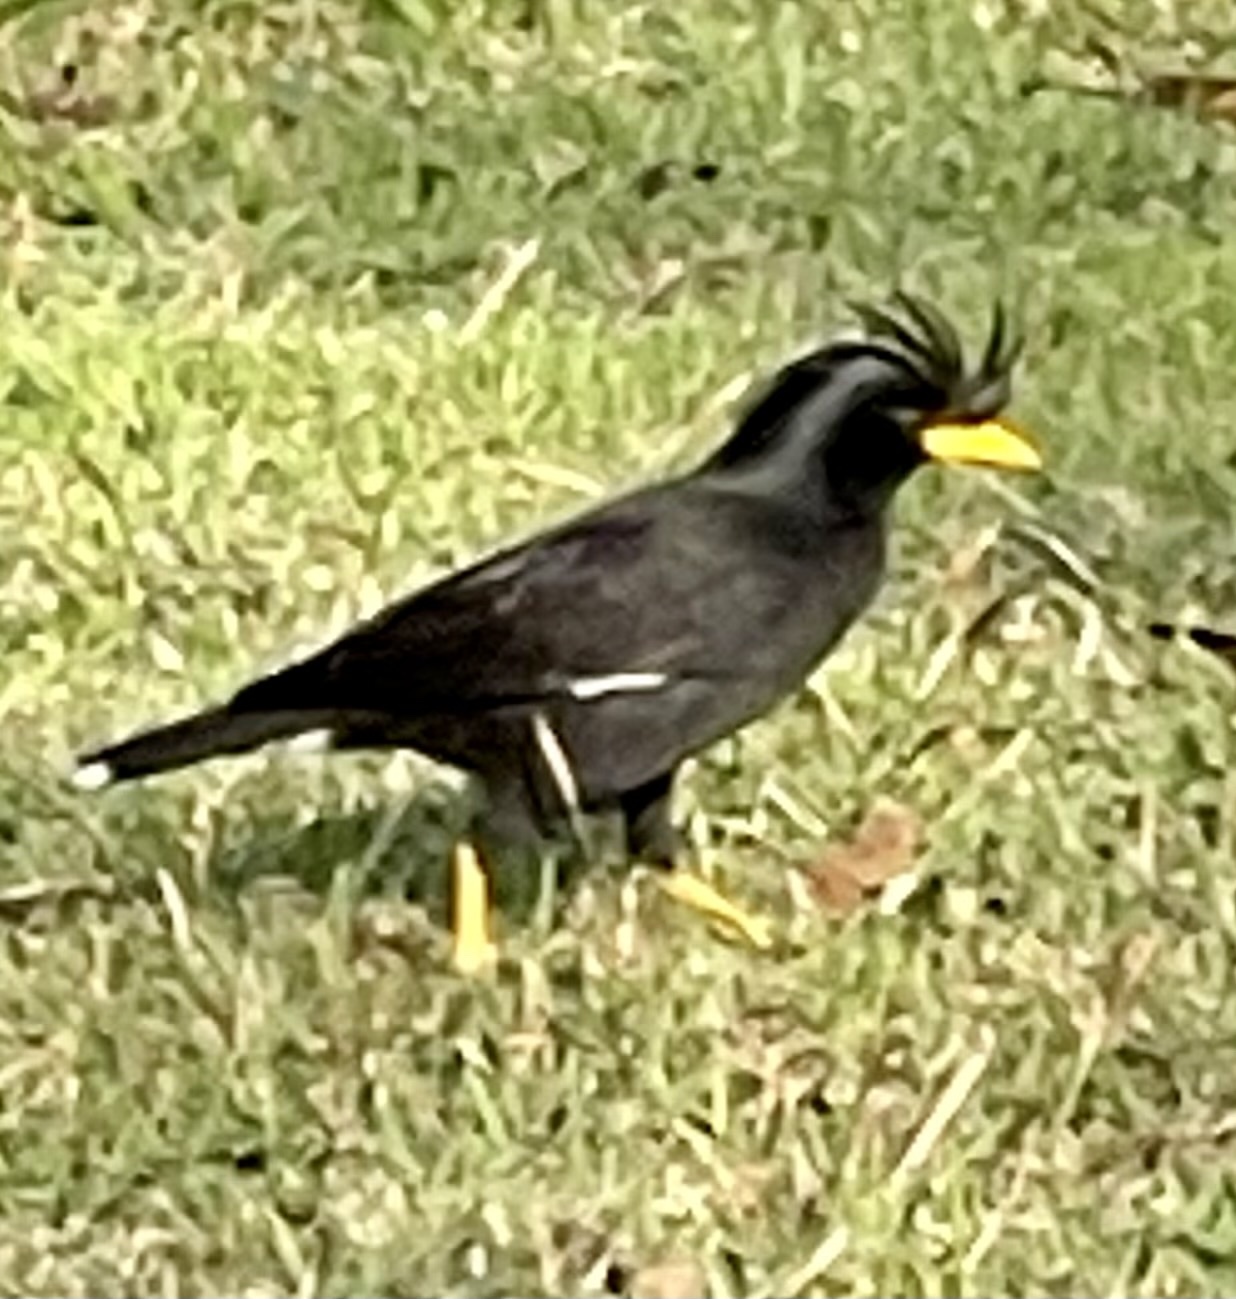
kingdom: Animalia
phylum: Chordata
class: Aves
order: Passeriformes
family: Sturnidae
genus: Acridotheres
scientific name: Acridotheres grandis
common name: Great myna
